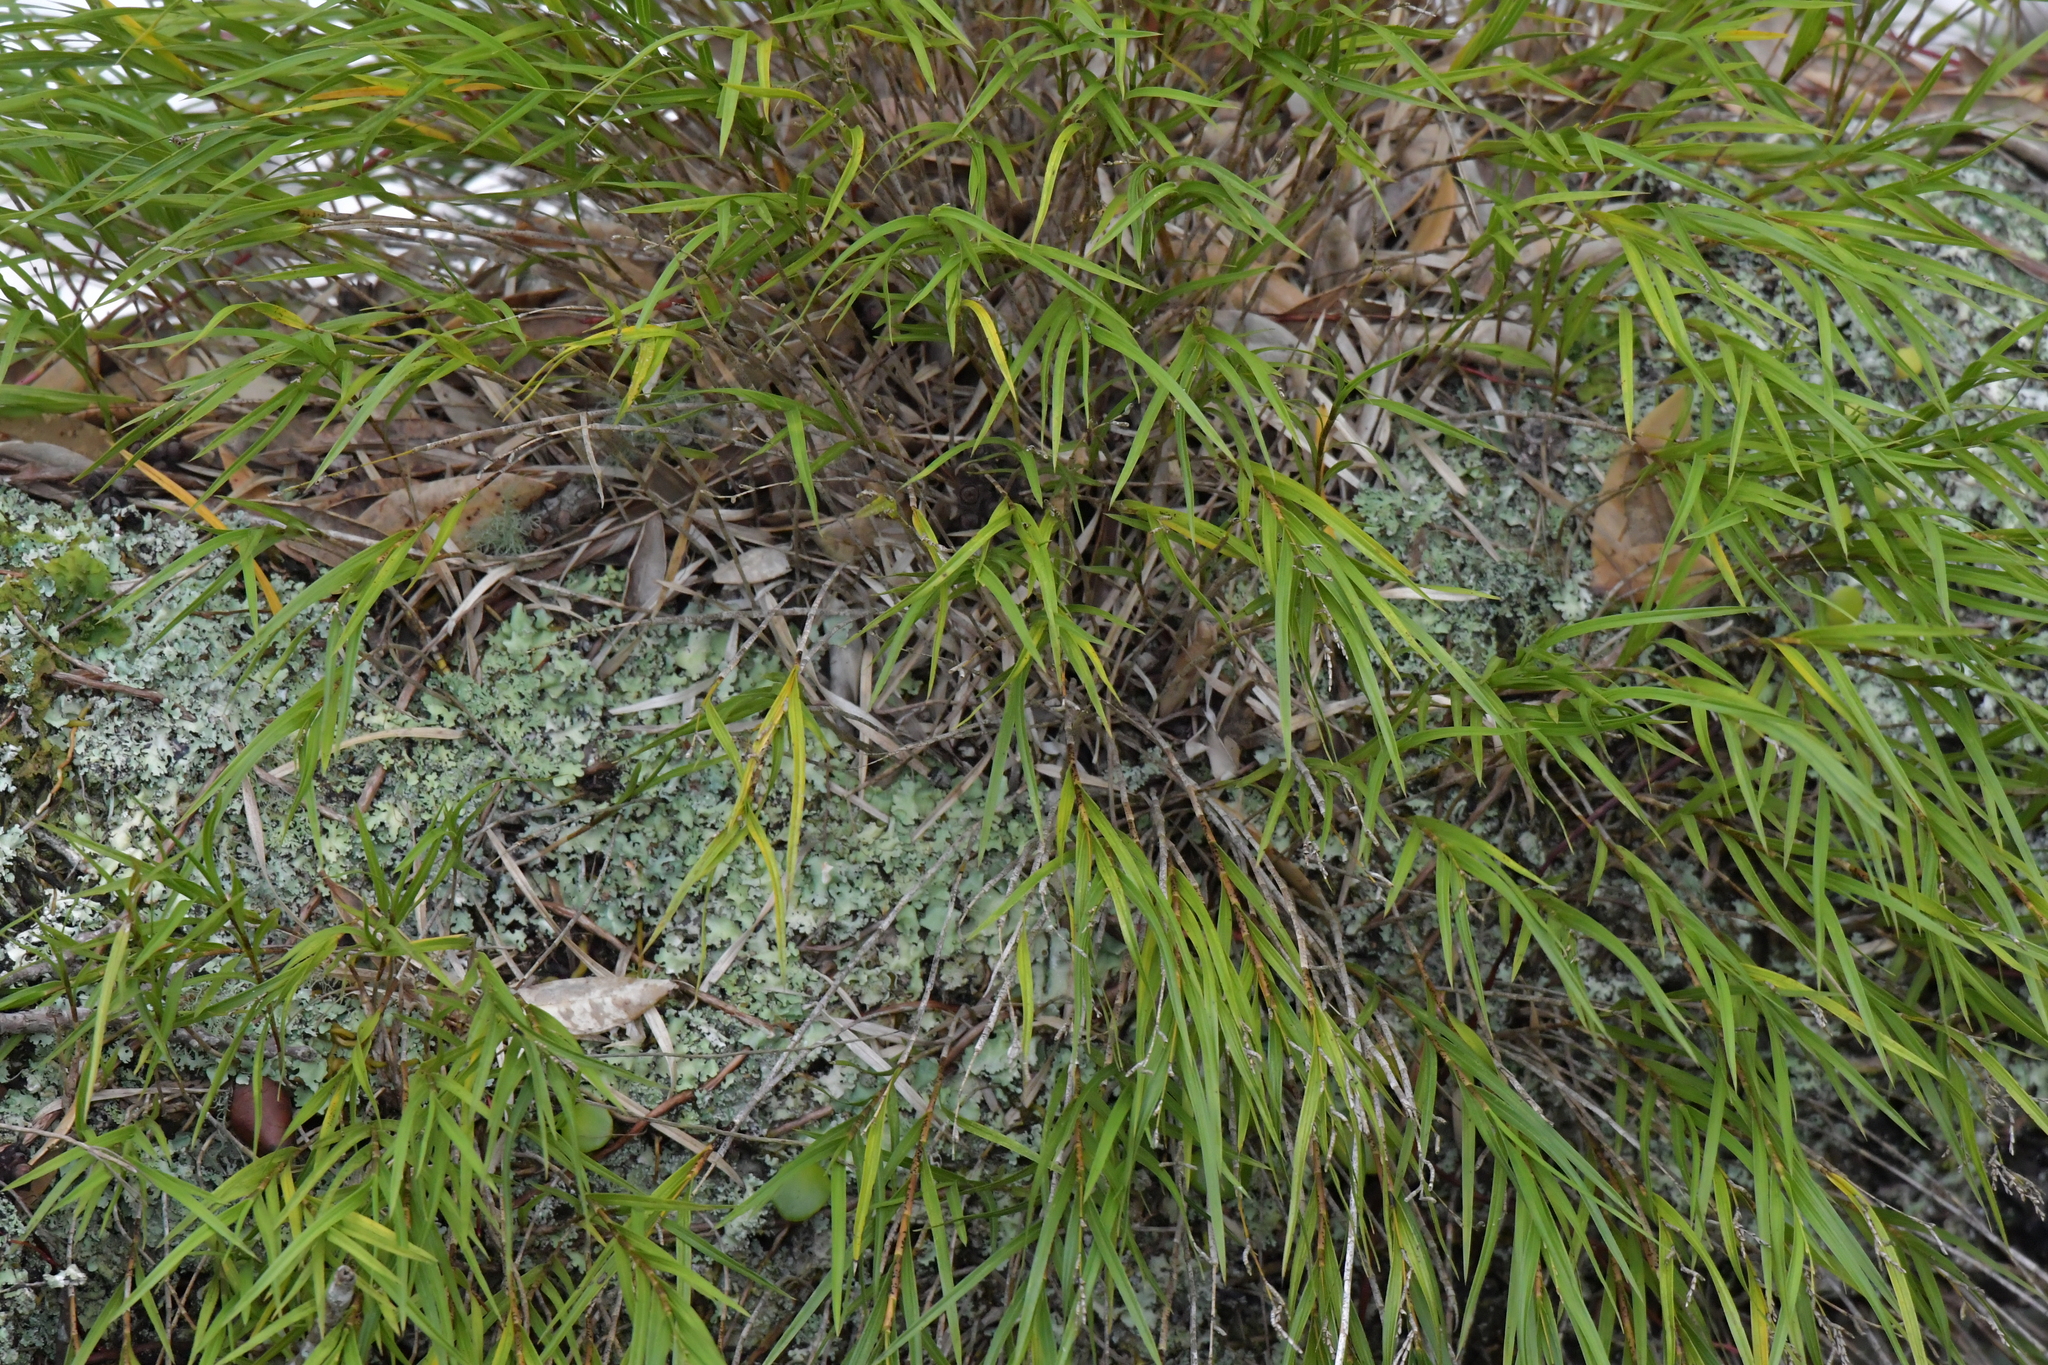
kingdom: Plantae
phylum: Tracheophyta
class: Liliopsida
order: Asparagales
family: Orchidaceae
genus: Earina
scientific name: Earina mucronata
